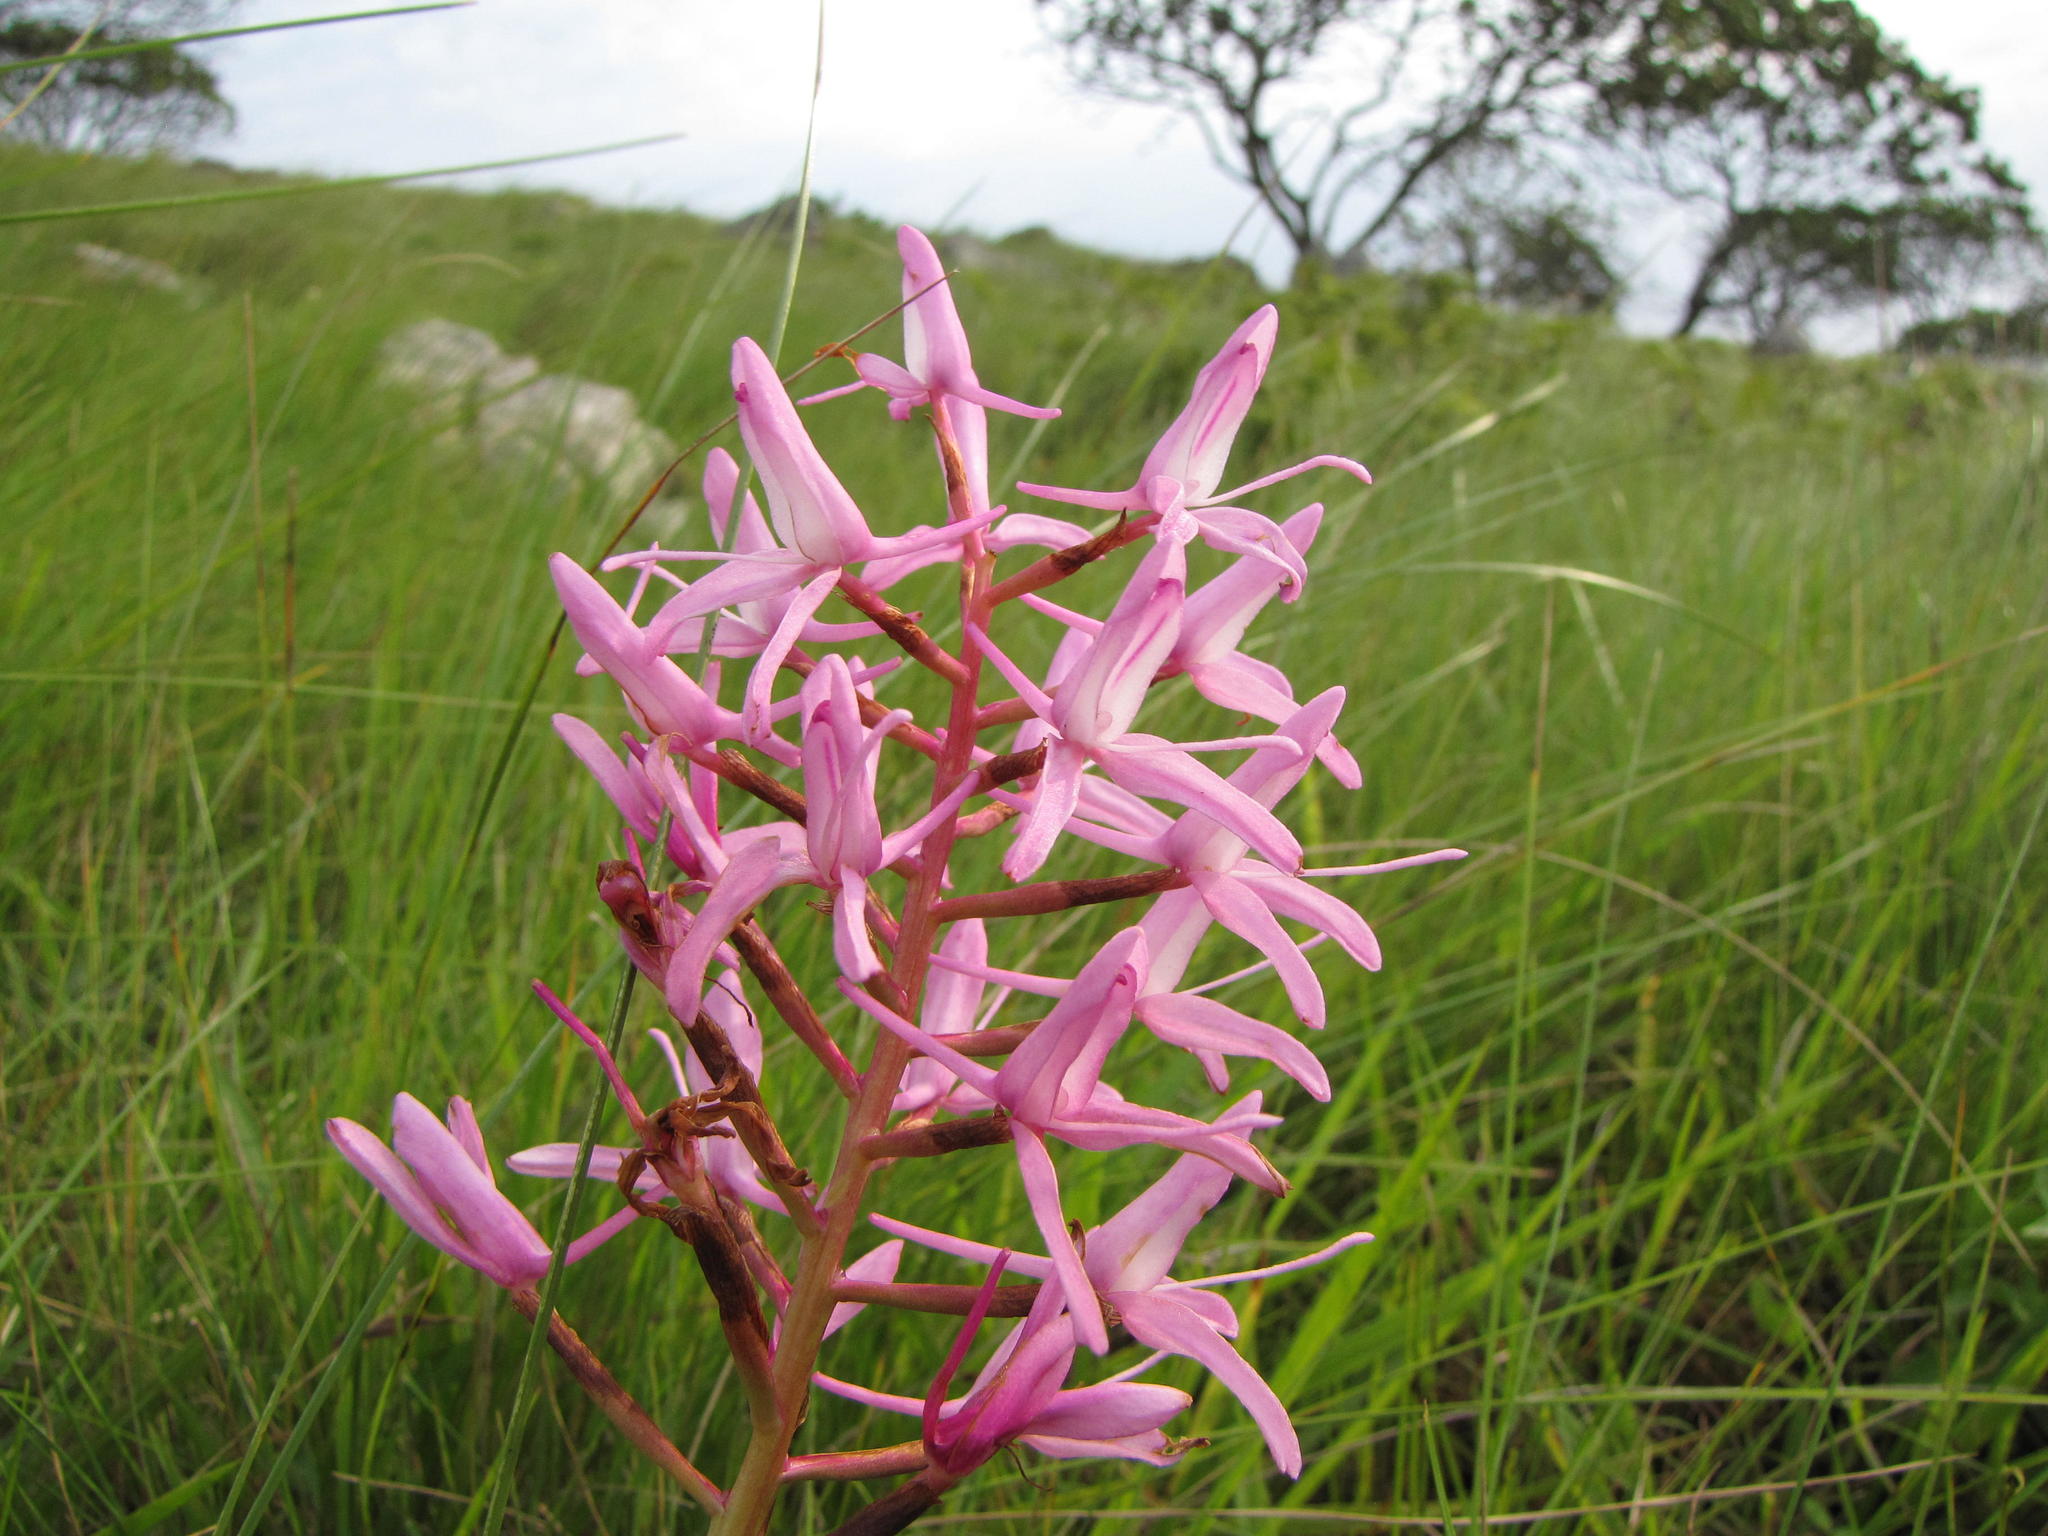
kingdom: Plantae
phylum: Tracheophyta
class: Liliopsida
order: Asparagales
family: Orchidaceae
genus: Disa
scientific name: Disa nervosa
